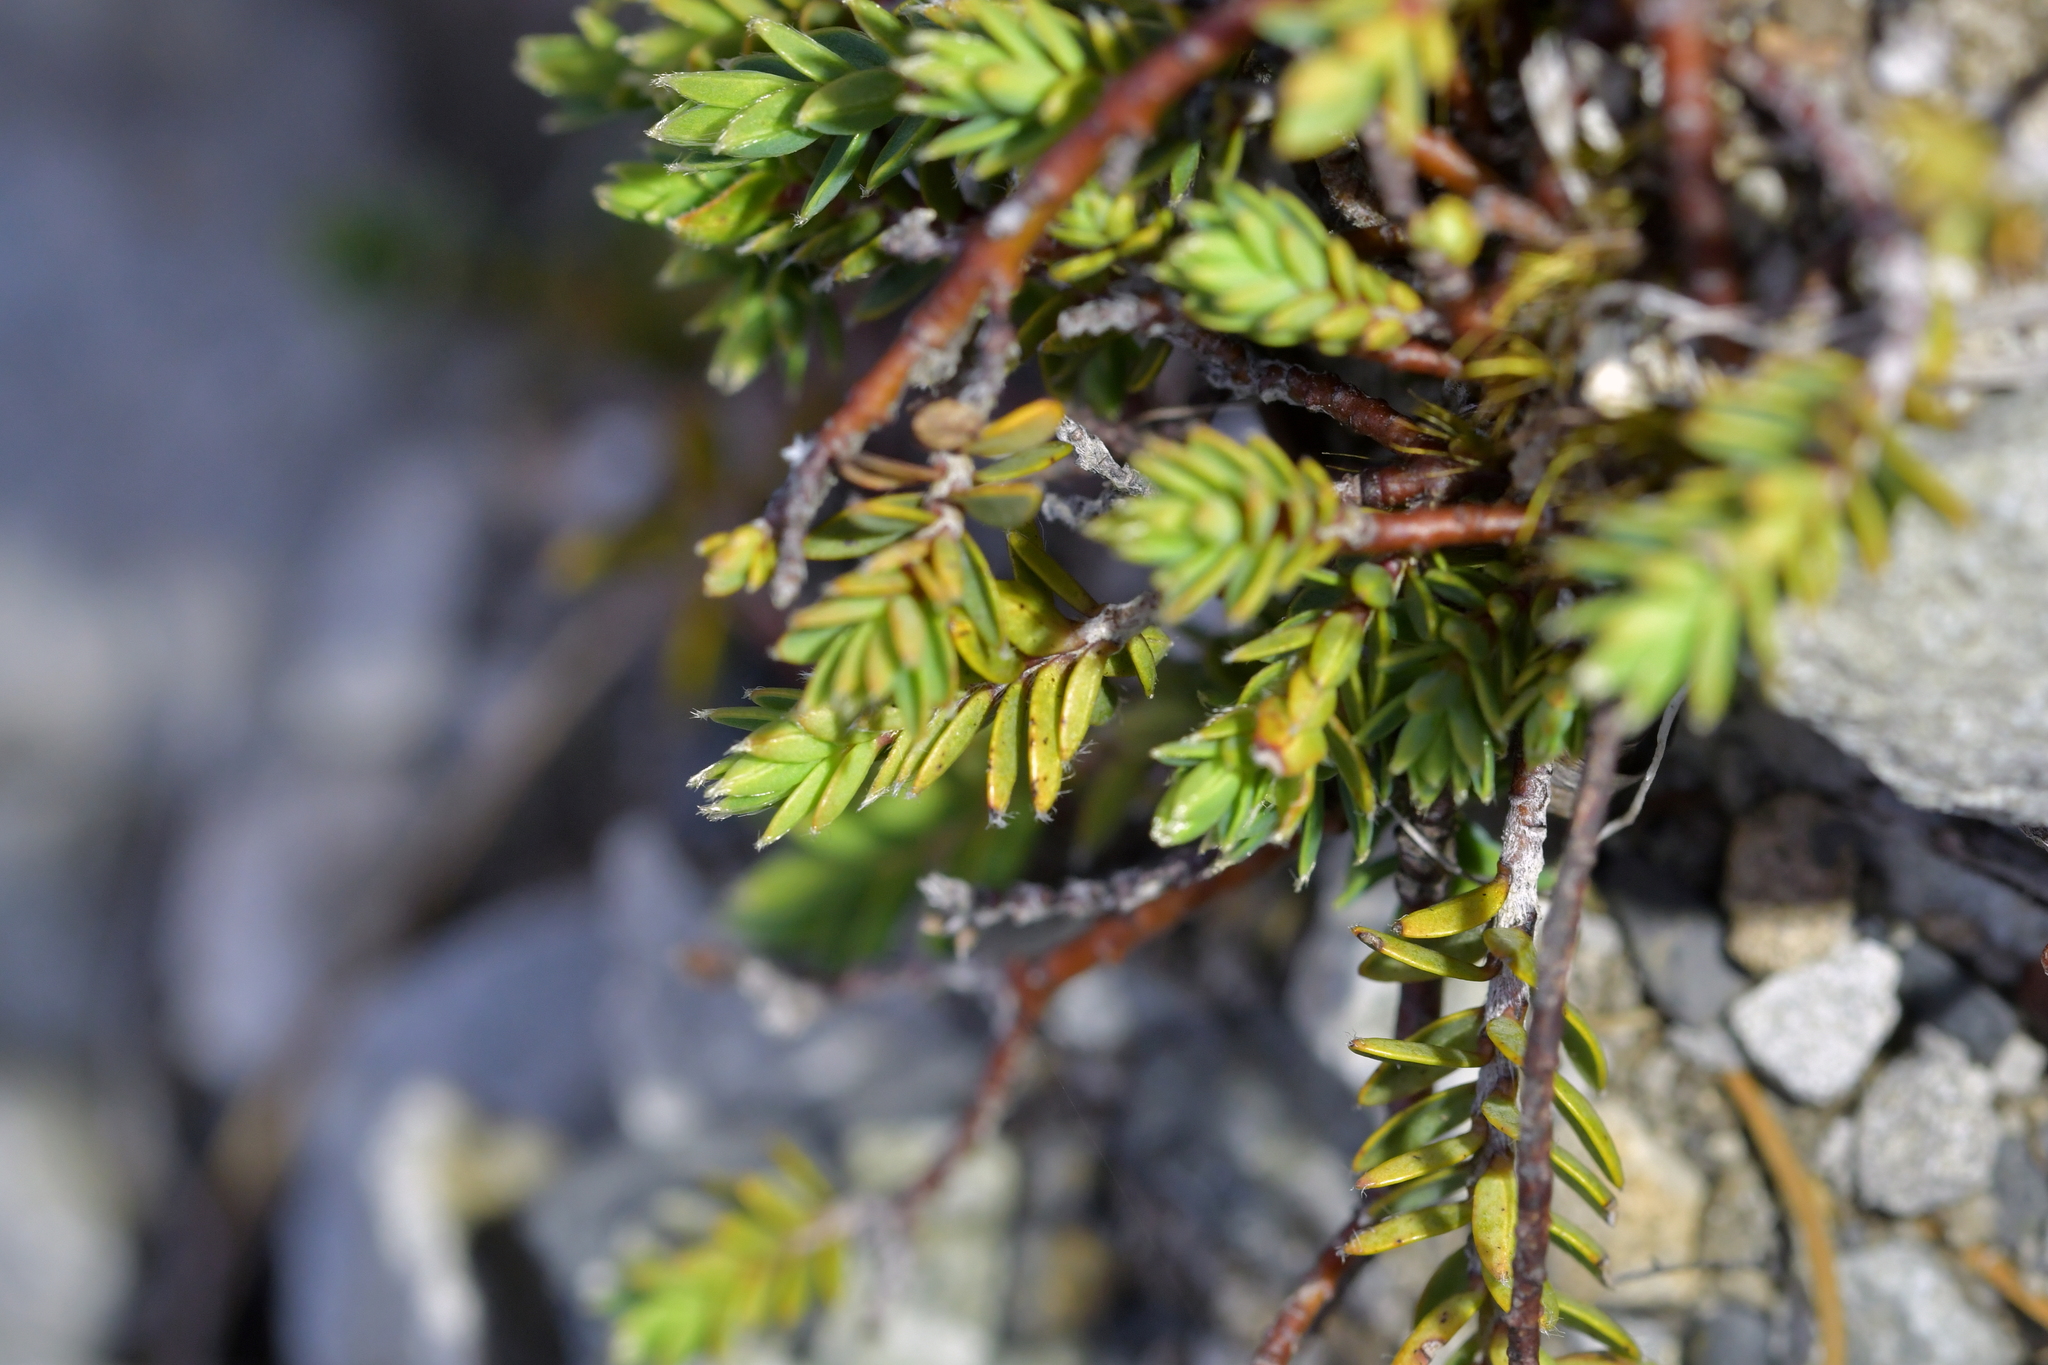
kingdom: Plantae
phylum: Tracheophyta
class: Magnoliopsida
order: Malvales
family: Thymelaeaceae
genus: Pimelea
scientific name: Pimelea oreophila
